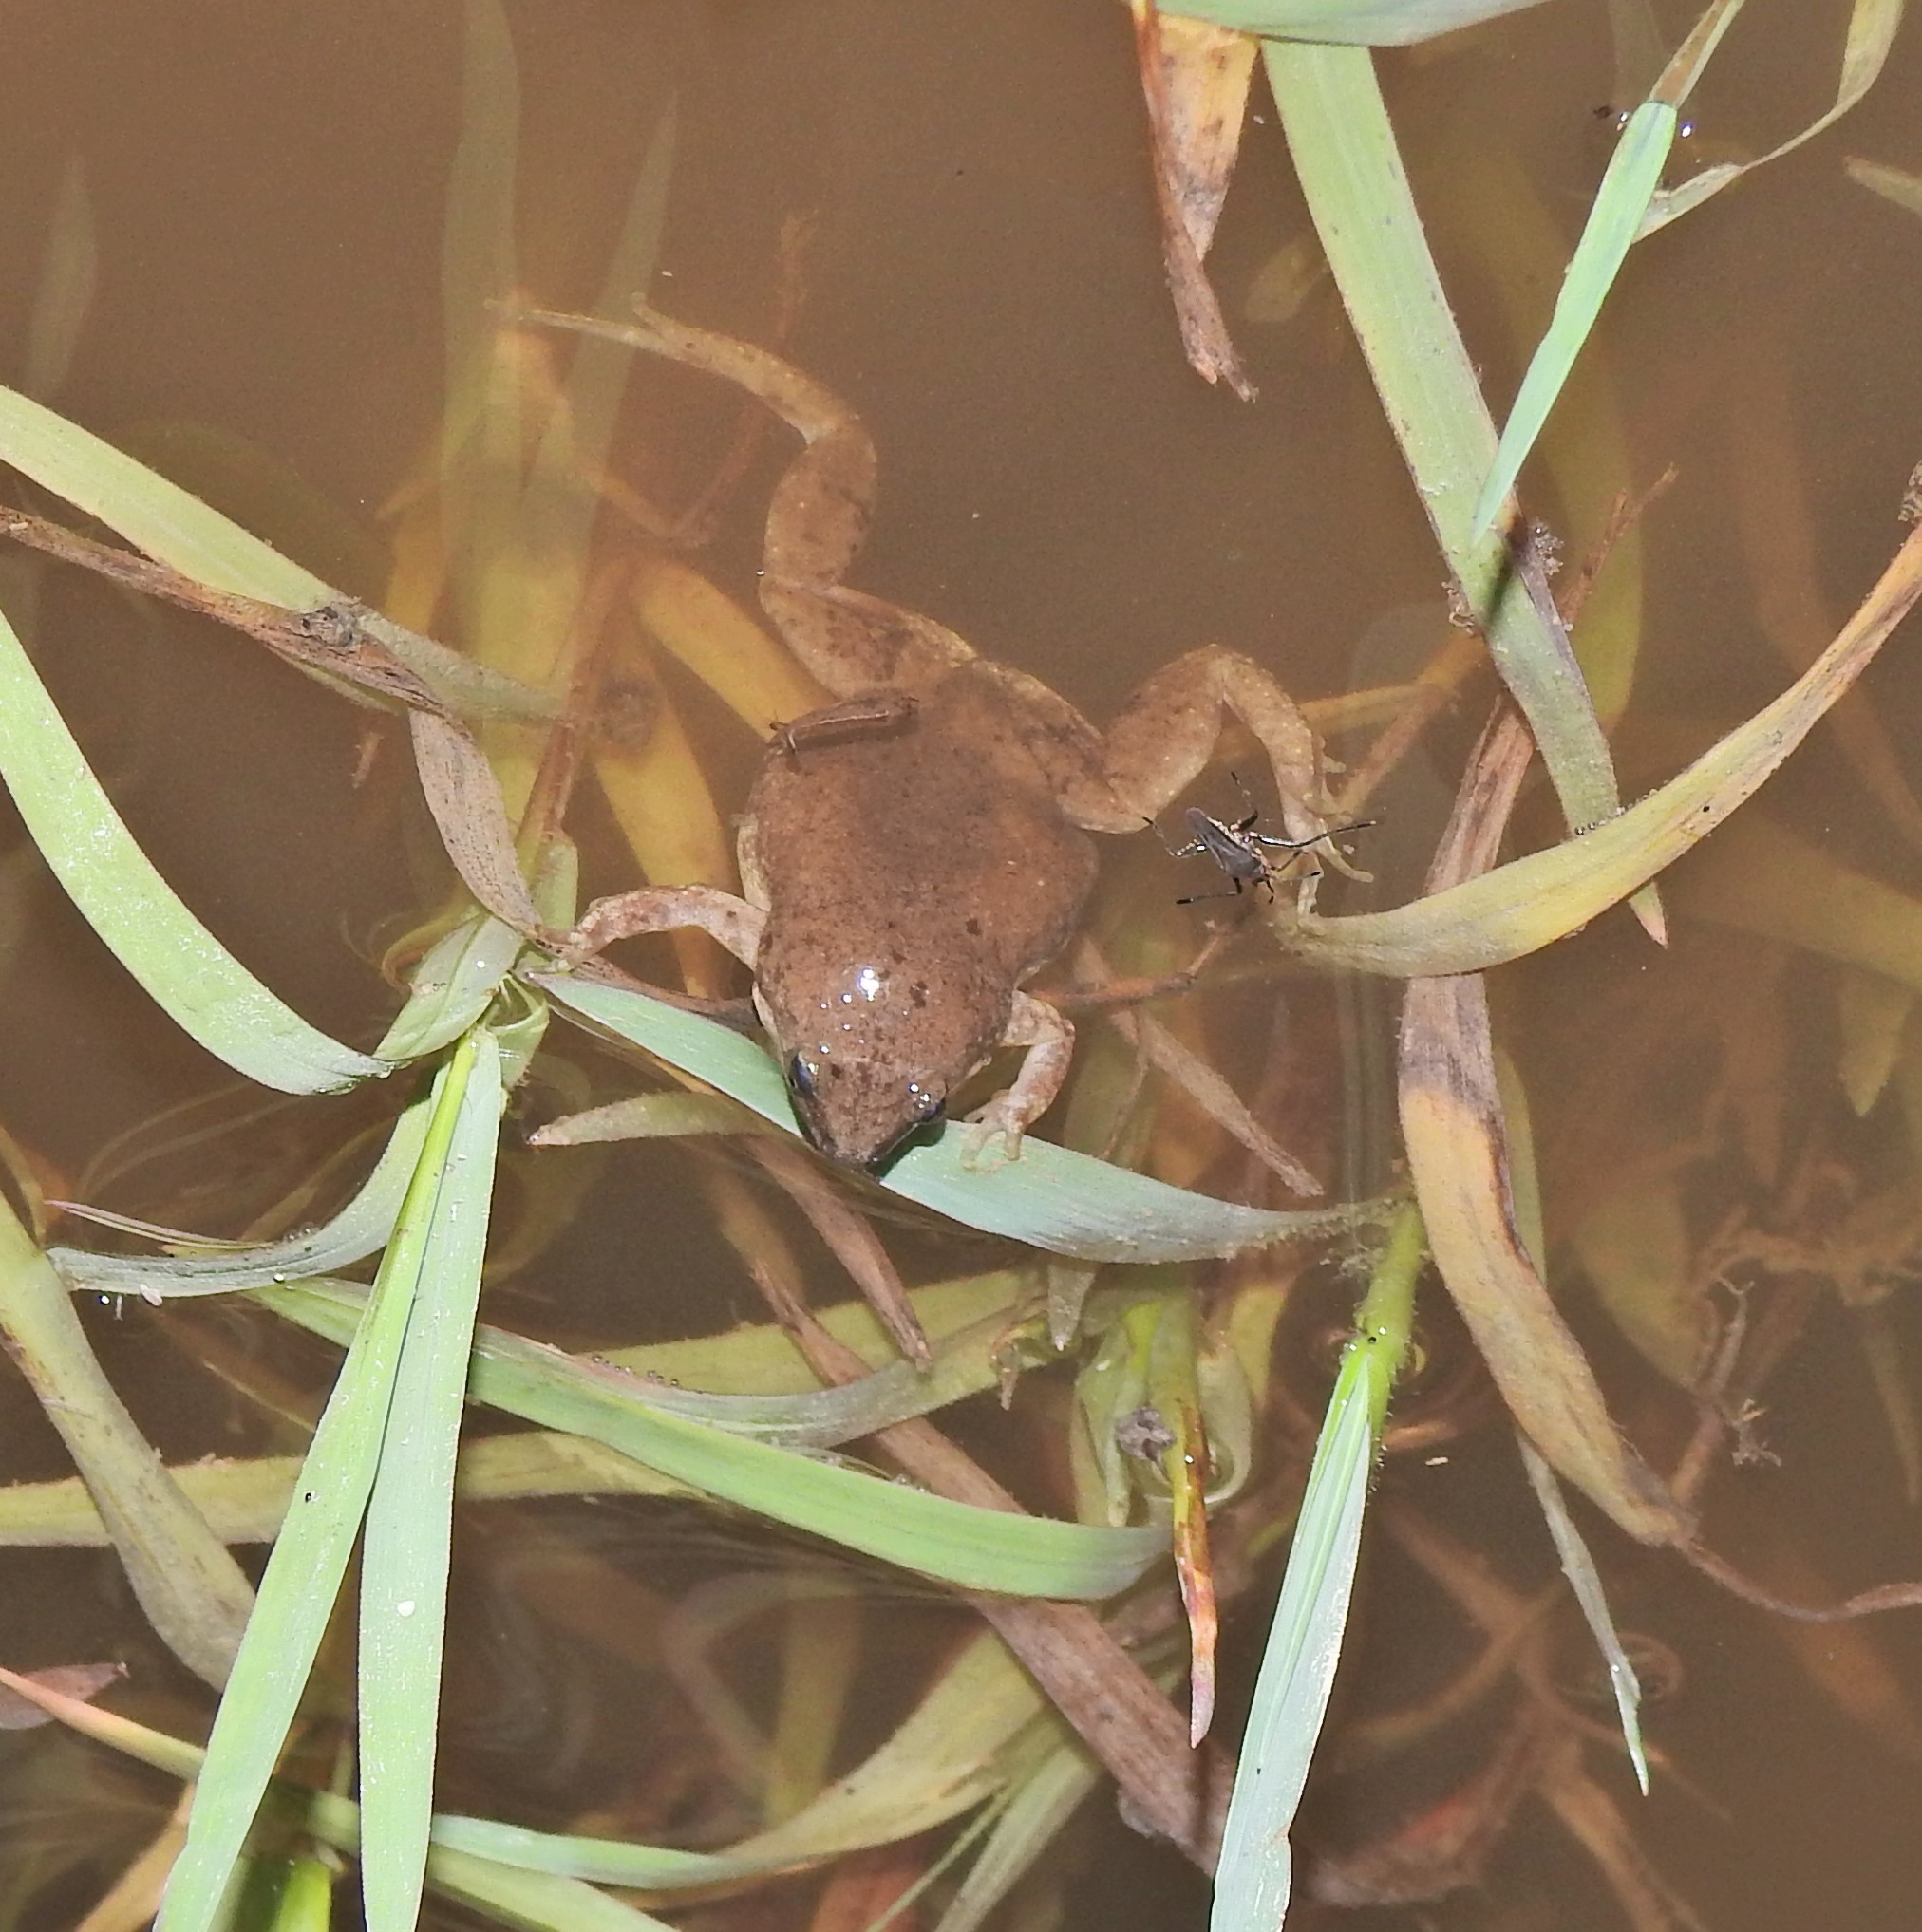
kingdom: Animalia
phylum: Chordata
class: Amphibia
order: Anura
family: Microhylidae
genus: Gastrophryne
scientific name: Gastrophryne olivacea
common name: Great plains narrow-mouthed toad
